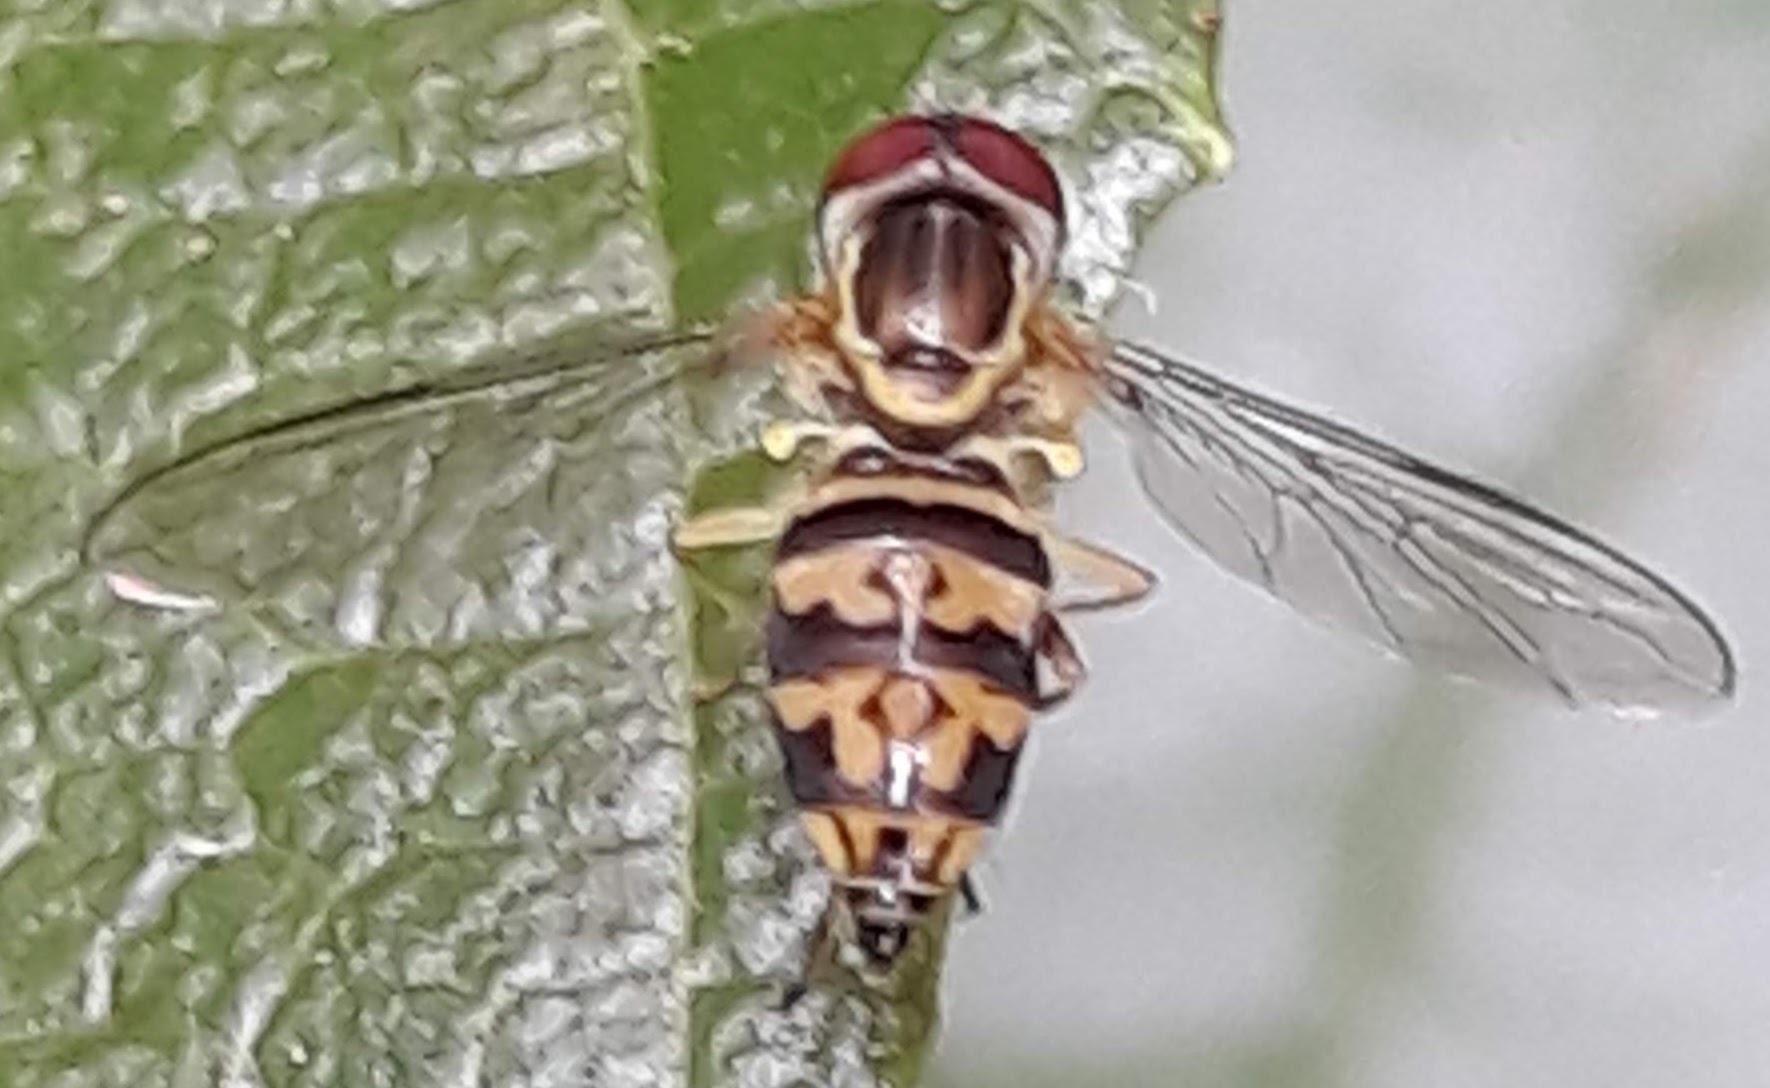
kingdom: Animalia
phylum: Arthropoda
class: Insecta
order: Diptera
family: Syrphidae
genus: Toxomerus
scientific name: Toxomerus geminatus
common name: Eastern calligrapher
